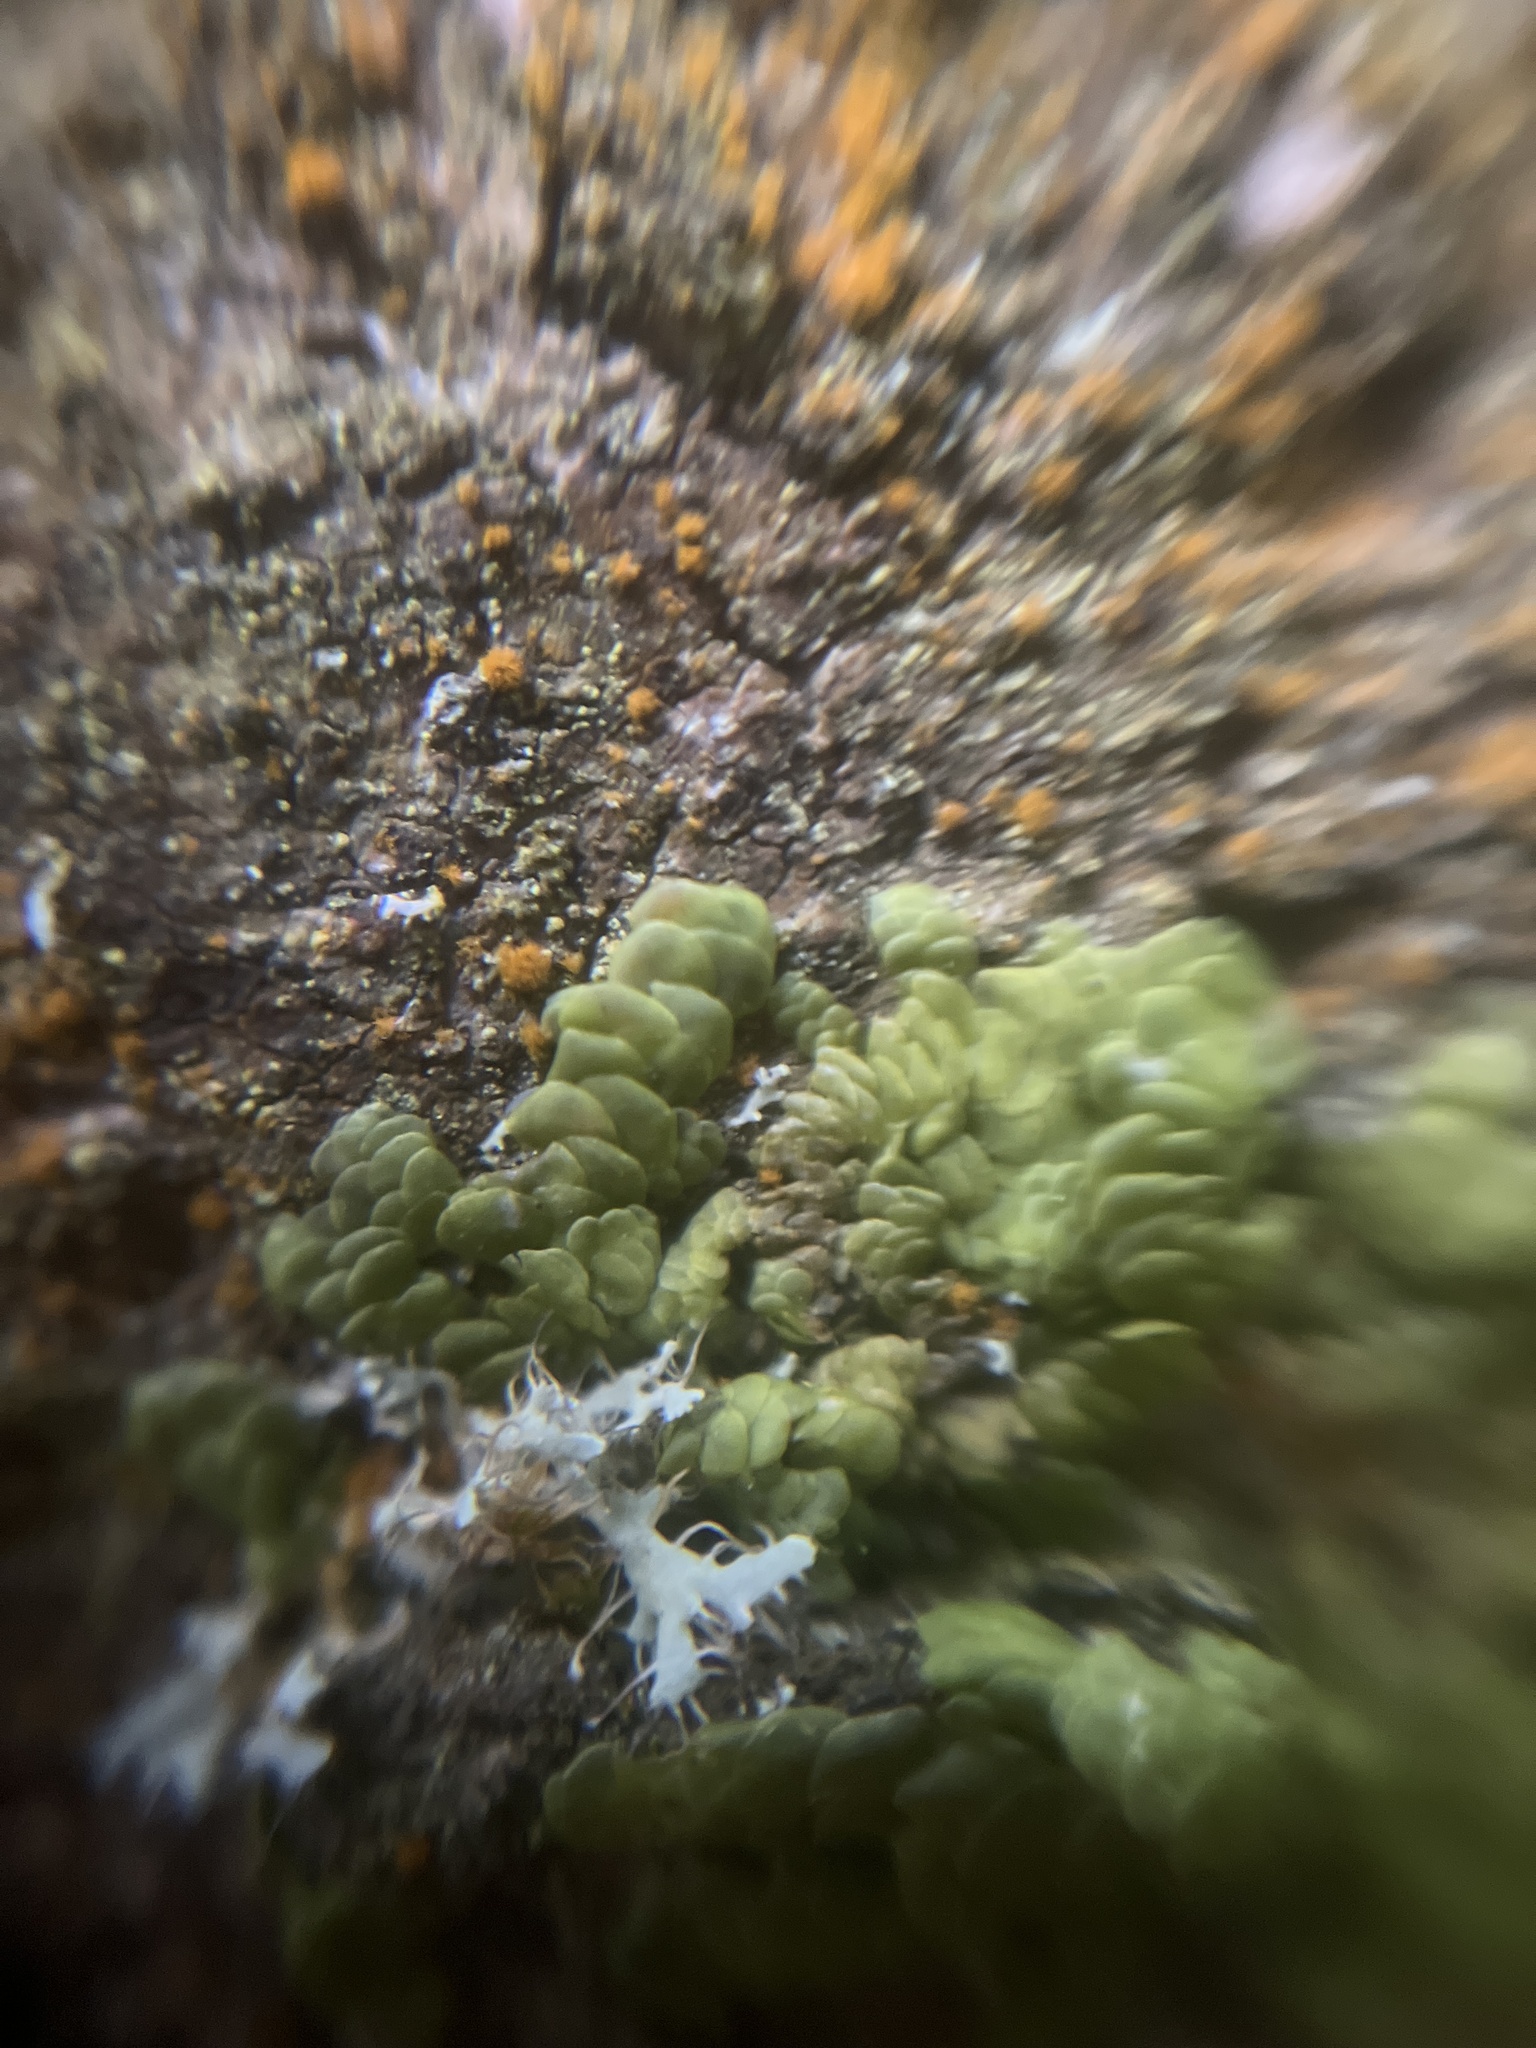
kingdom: Plantae
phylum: Marchantiophyta
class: Jungermanniopsida
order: Porellales
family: Radulaceae
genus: Radula
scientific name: Radula complanata
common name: Flat-leaved scalewort
